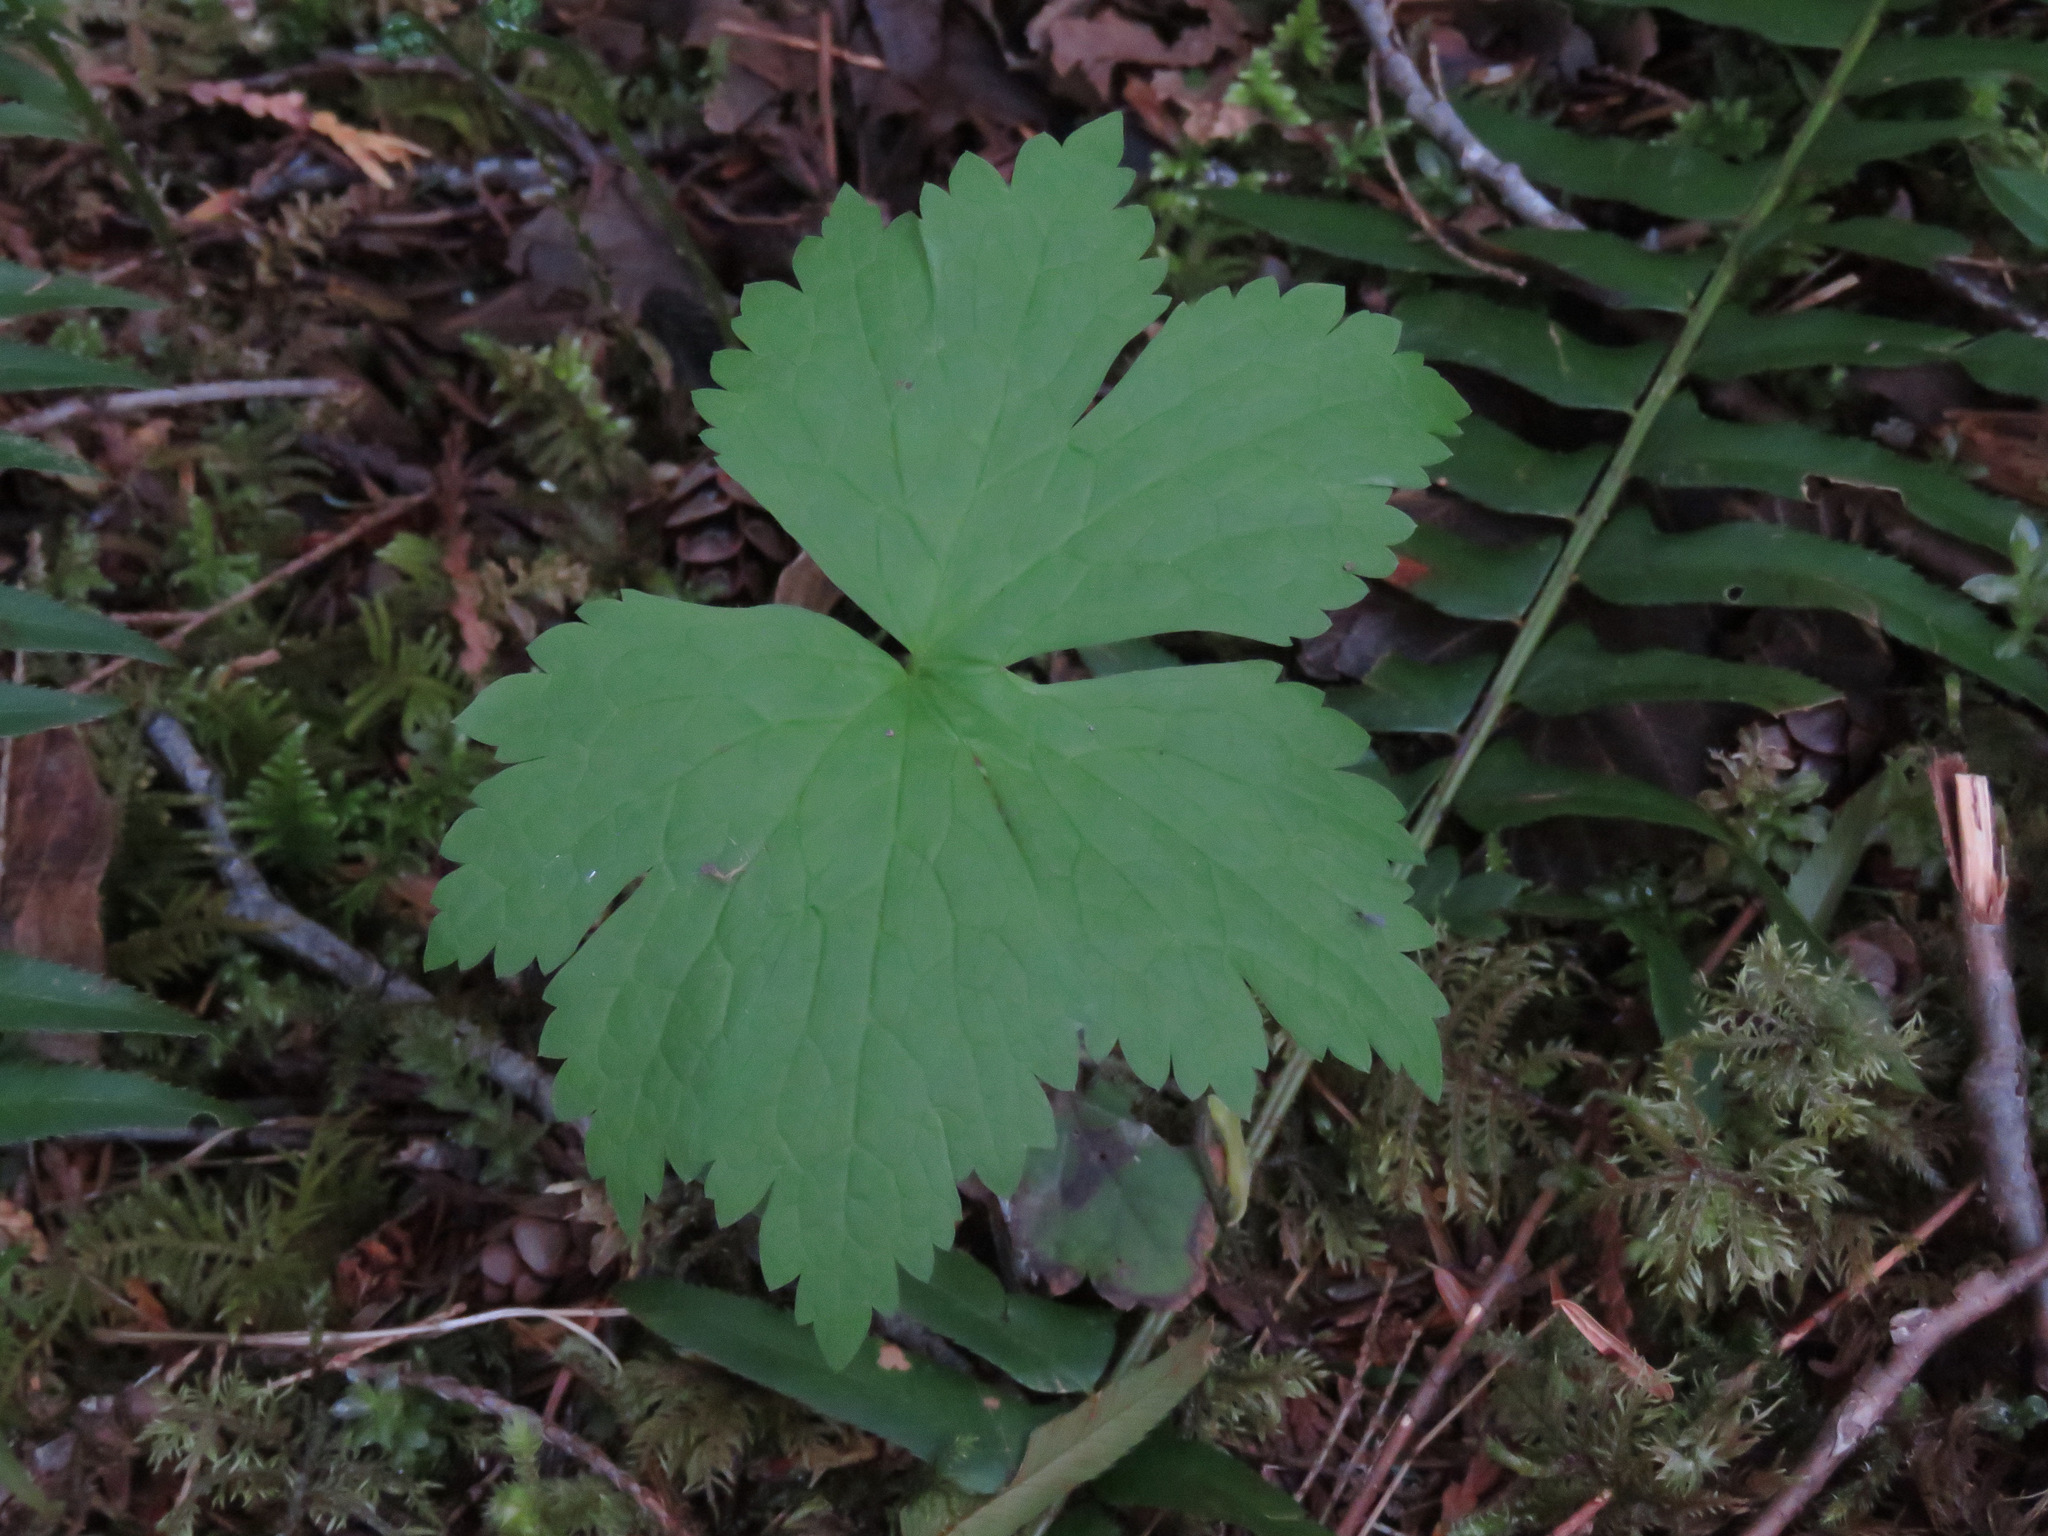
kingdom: Plantae
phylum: Tracheophyta
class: Magnoliopsida
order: Ranunculales
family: Ranunculaceae
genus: Trautvetteria
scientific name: Trautvetteria carolinensis
